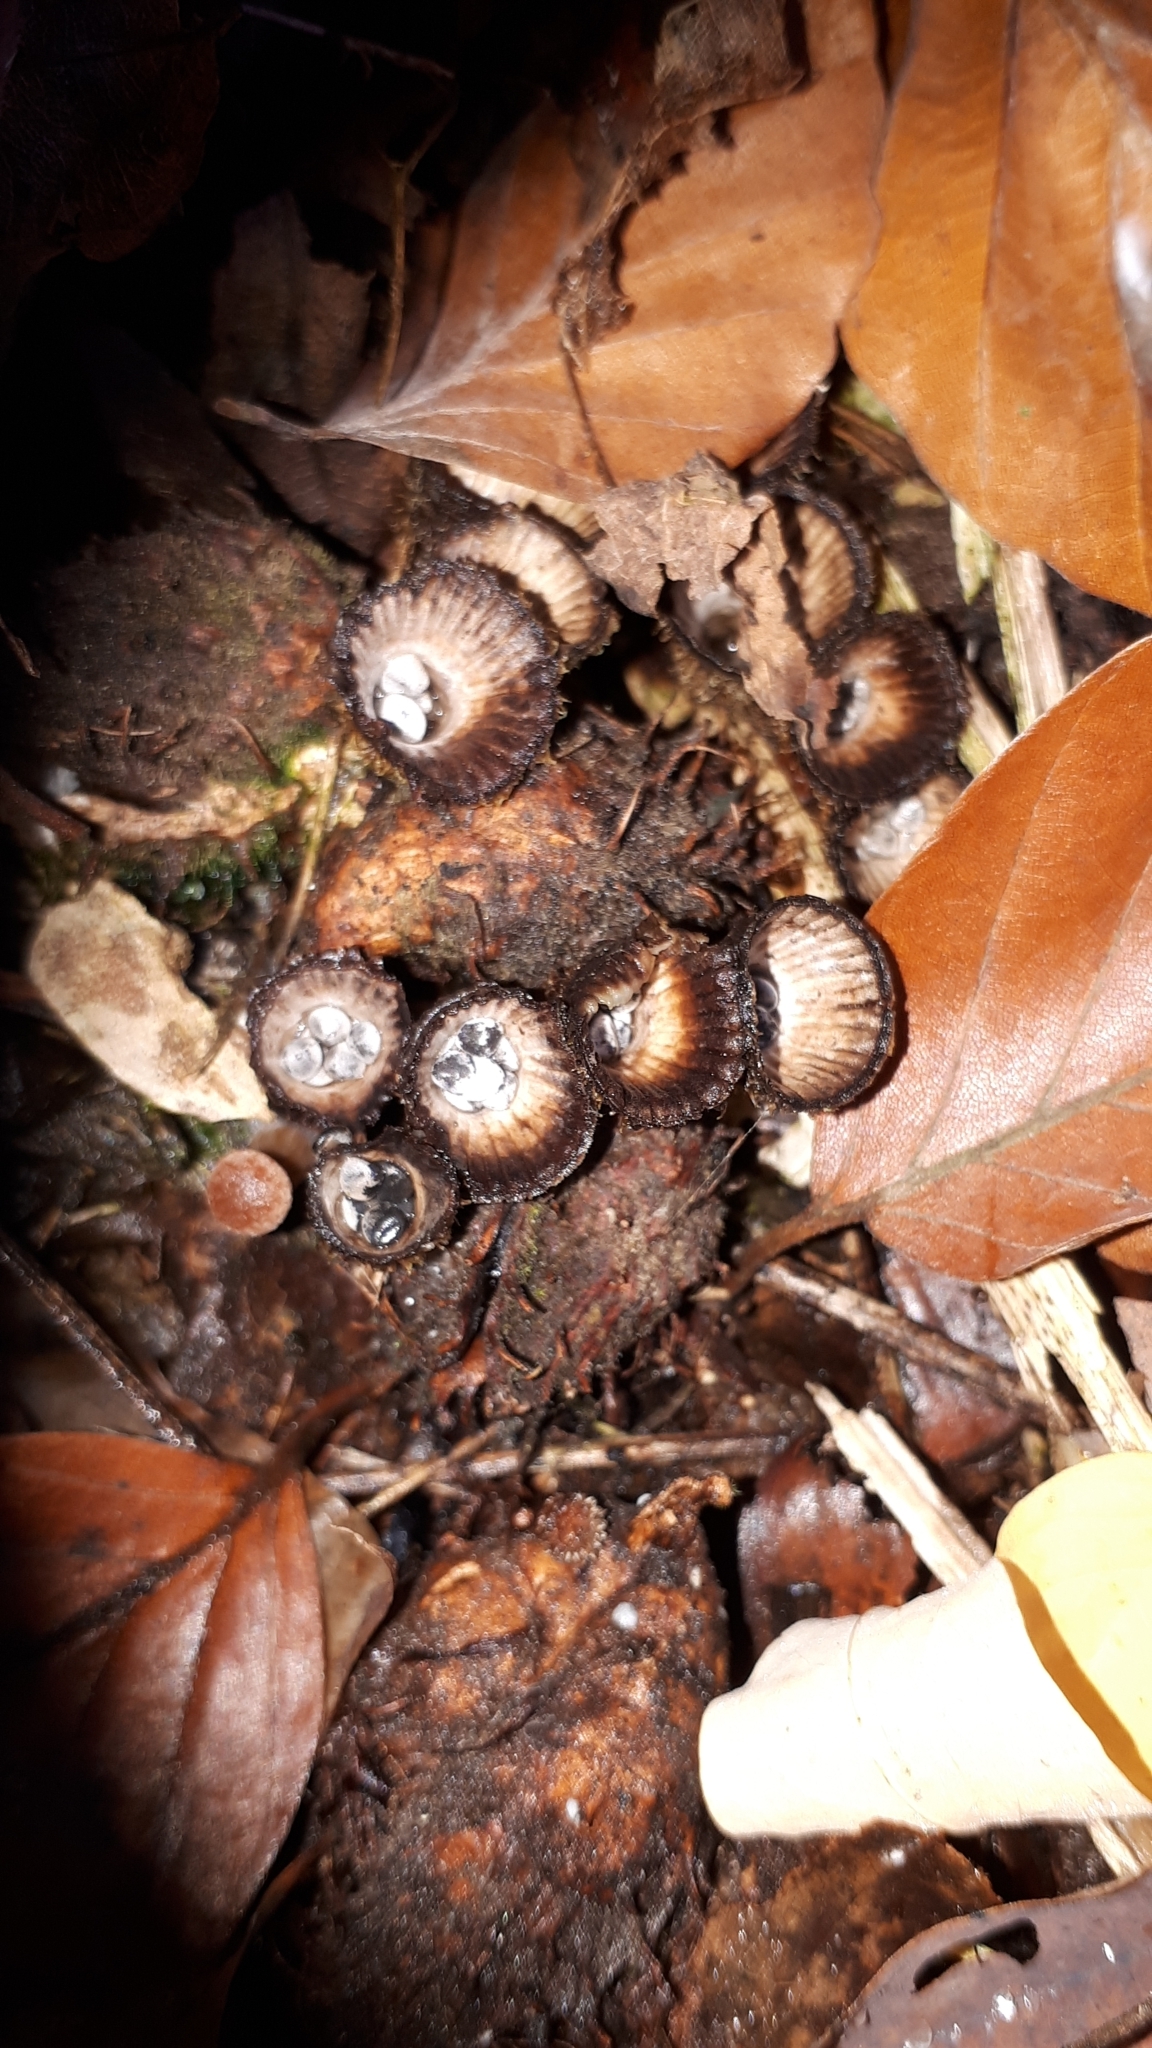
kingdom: Fungi
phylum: Basidiomycota
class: Agaricomycetes
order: Agaricales
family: Agaricaceae
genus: Cyathus
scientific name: Cyathus striatus
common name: Fluted bird's nest
